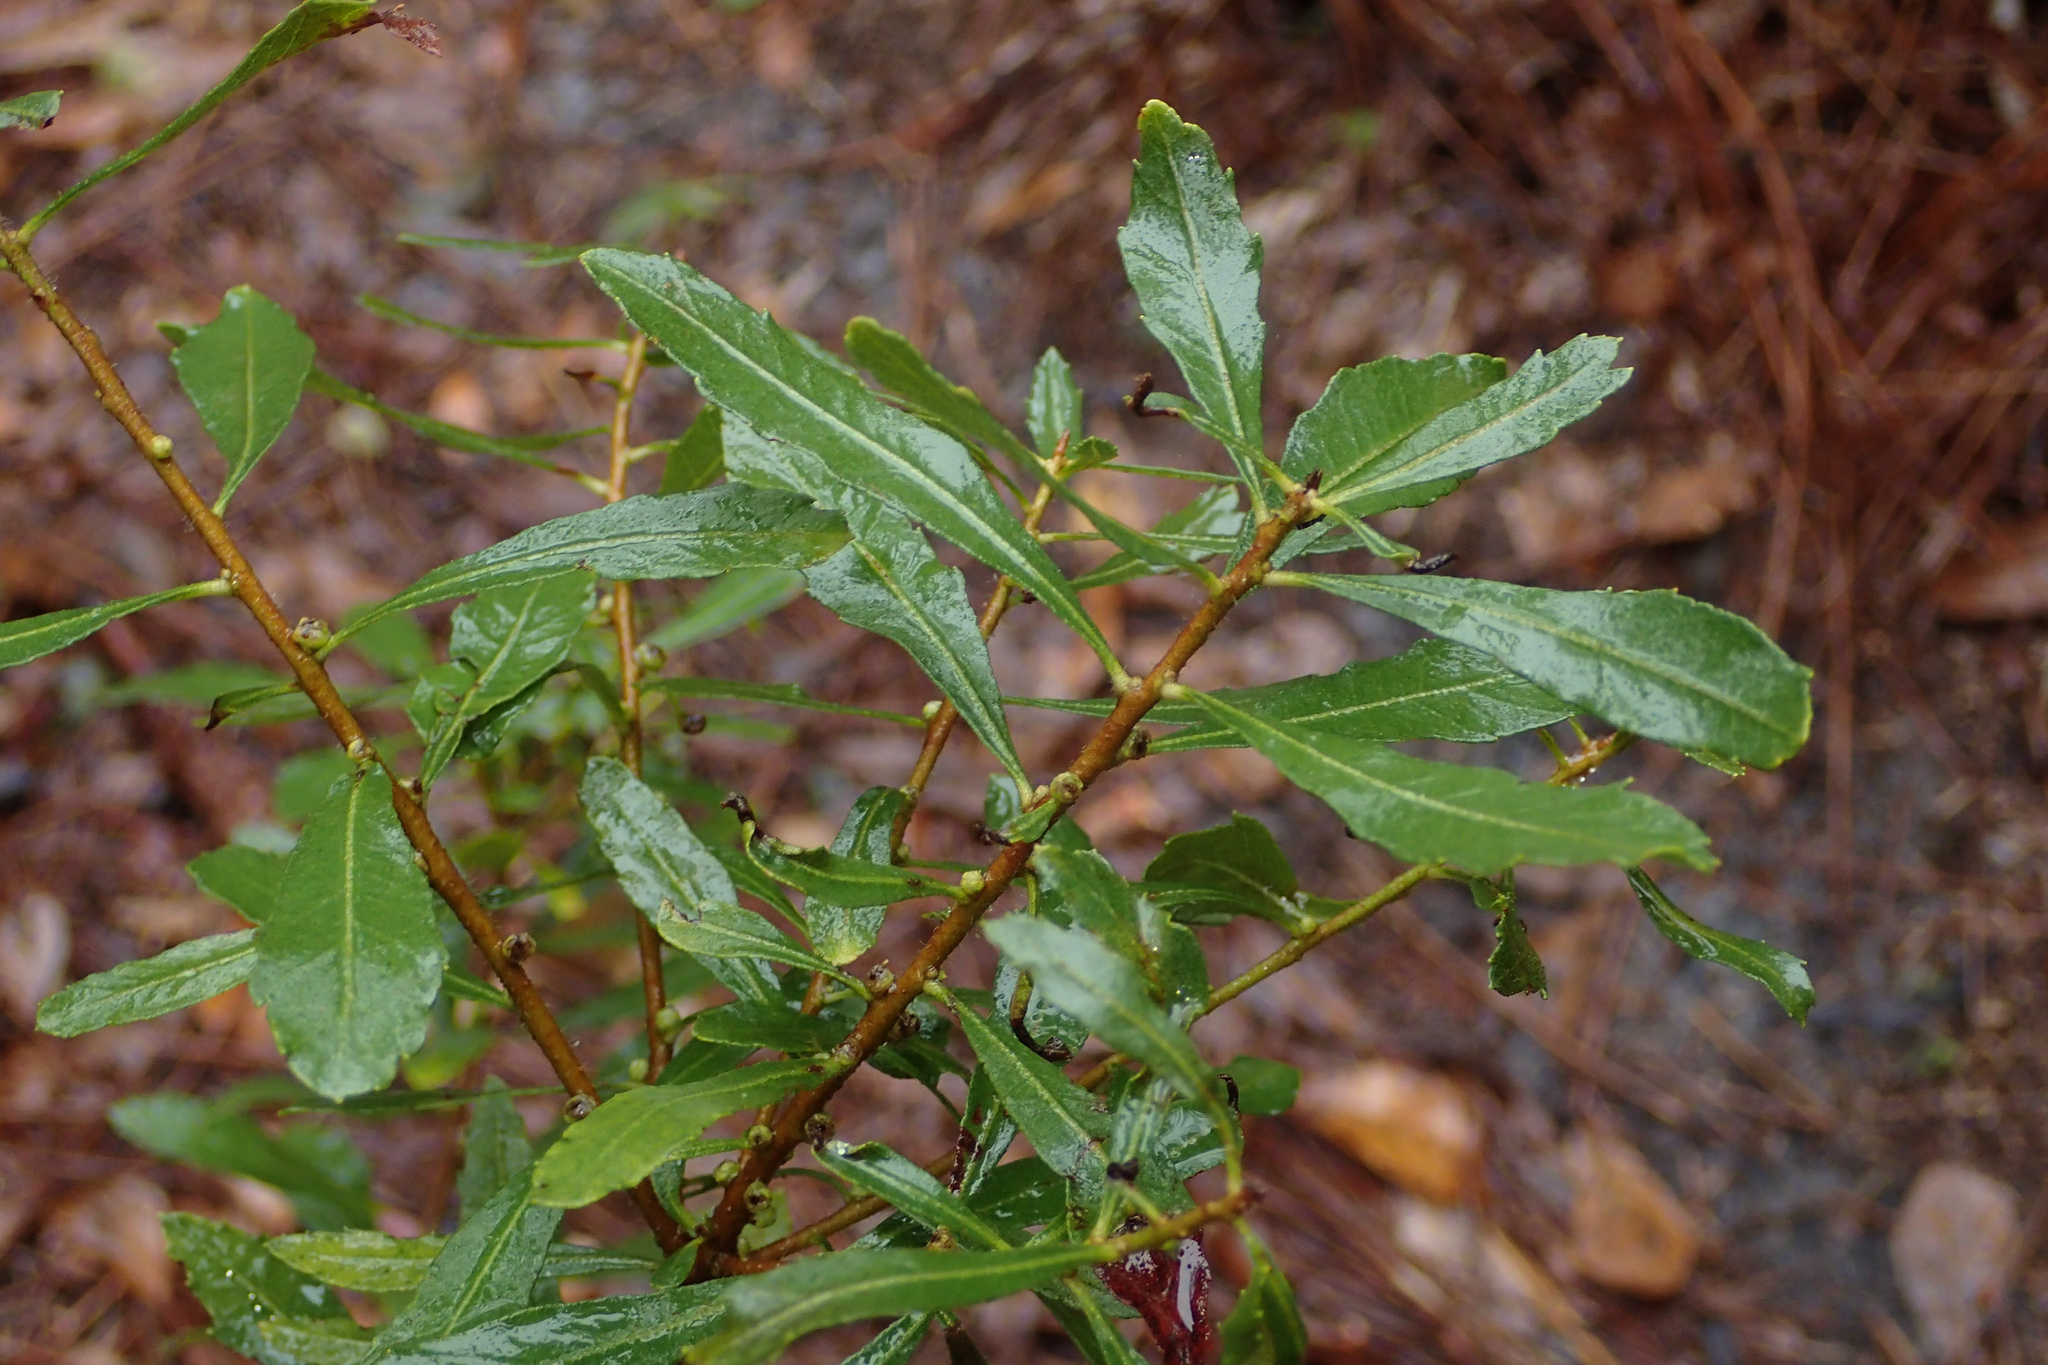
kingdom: Plantae
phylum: Tracheophyta
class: Magnoliopsida
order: Fagales
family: Myricaceae
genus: Morella
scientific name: Morella cerifera
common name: Wax myrtle
